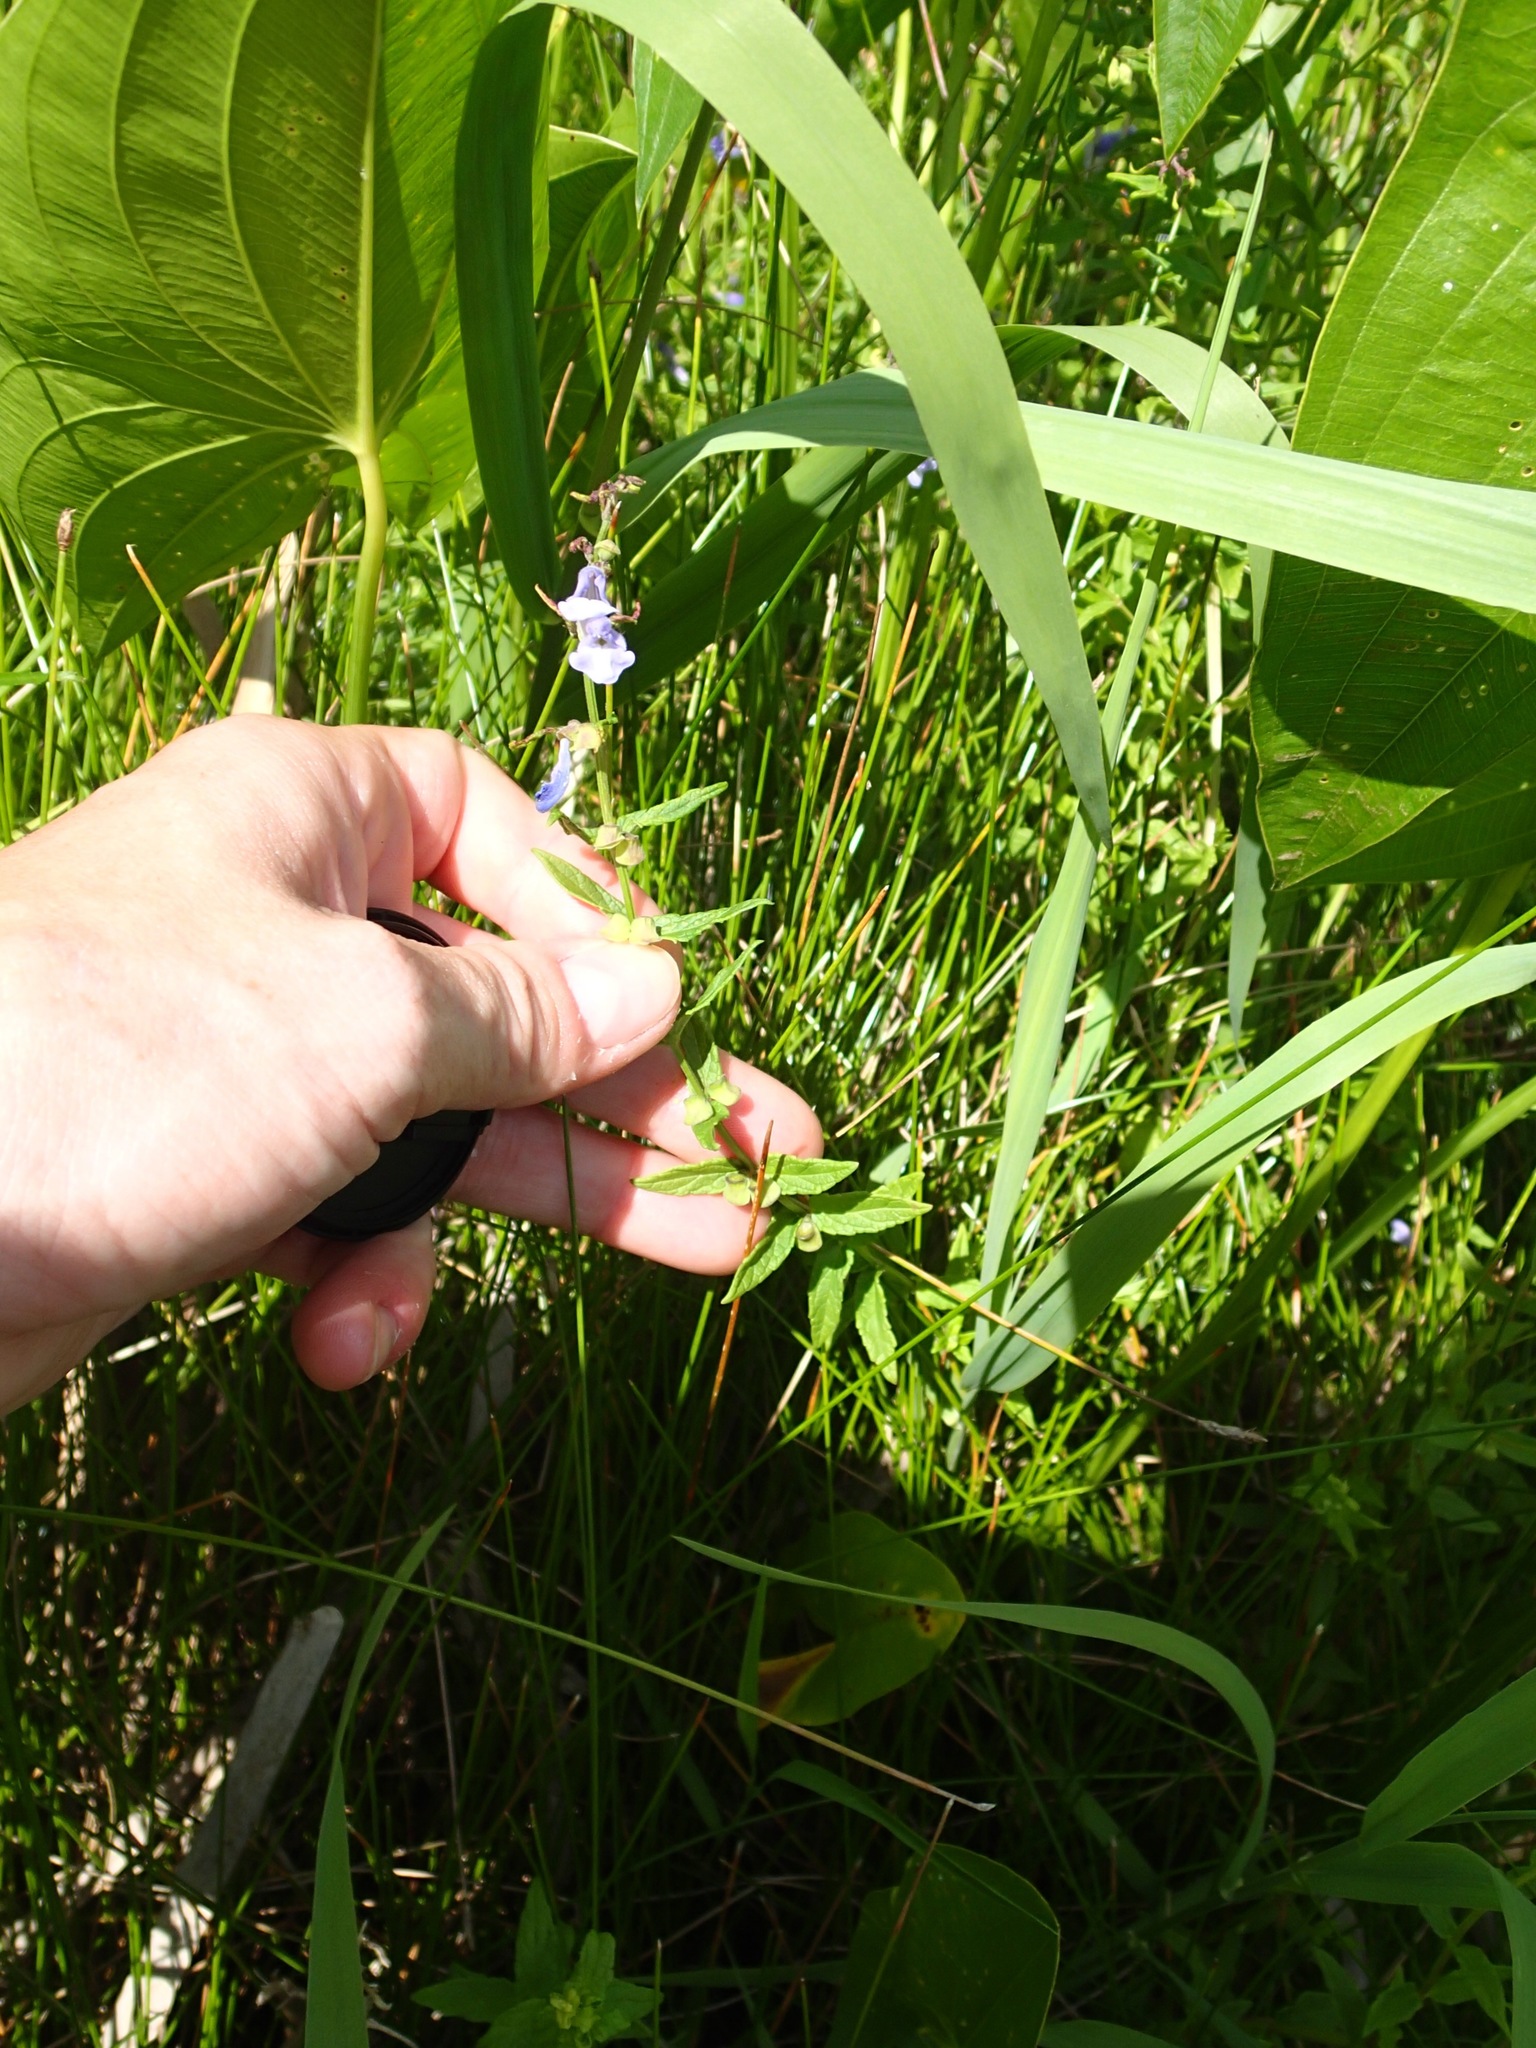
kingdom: Plantae
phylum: Tracheophyta
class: Magnoliopsida
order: Lamiales
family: Lamiaceae
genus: Scutellaria
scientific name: Scutellaria galericulata
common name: Skullcap
